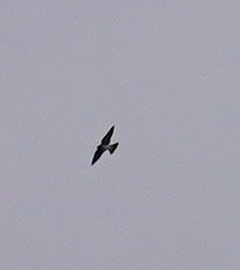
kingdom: Animalia
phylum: Chordata
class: Aves
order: Passeriformes
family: Hirundinidae
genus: Petrochelidon
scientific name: Petrochelidon pyrrhonota
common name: American cliff swallow
